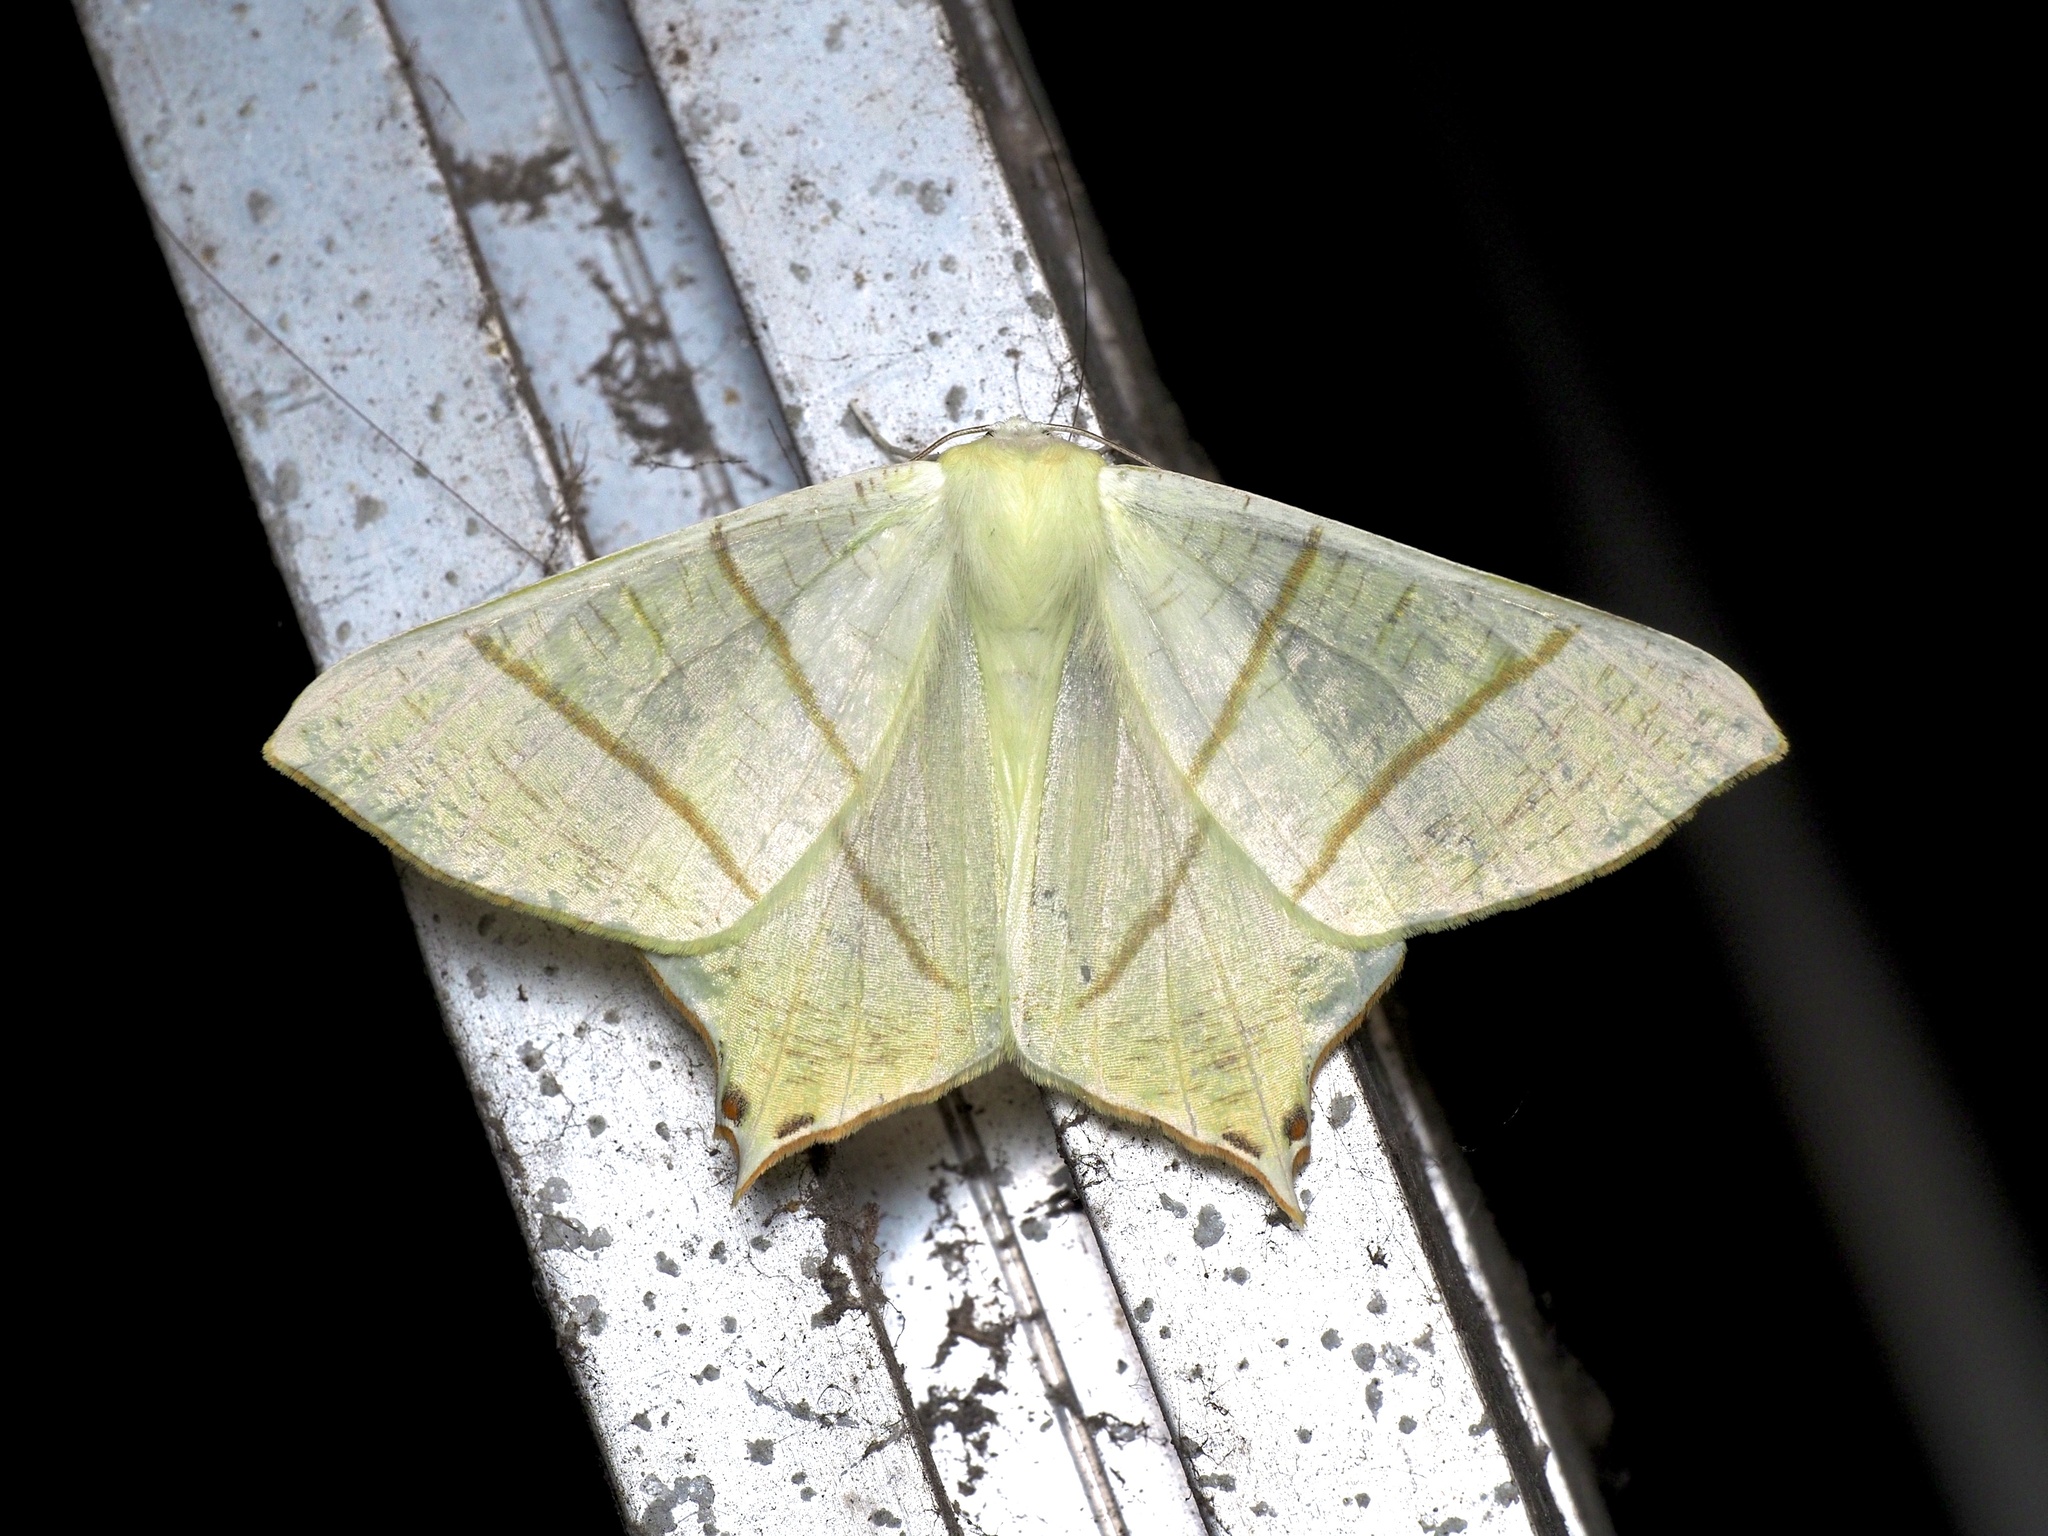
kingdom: Animalia
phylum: Arthropoda
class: Insecta
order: Lepidoptera
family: Geometridae
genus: Ourapteryx
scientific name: Ourapteryx sambucaria
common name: Swallow-tailed moth
